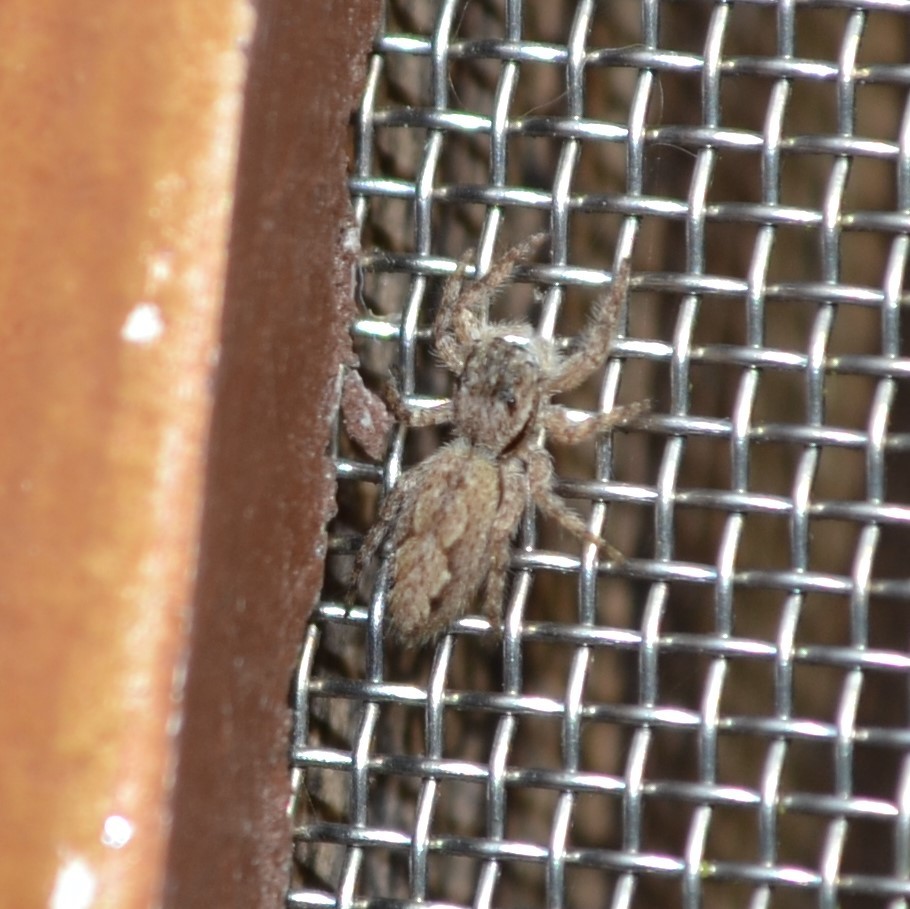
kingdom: Animalia
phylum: Arthropoda
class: Arachnida
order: Araneae
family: Salticidae
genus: Platycryptus
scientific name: Platycryptus undatus
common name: Tan jumping spider
